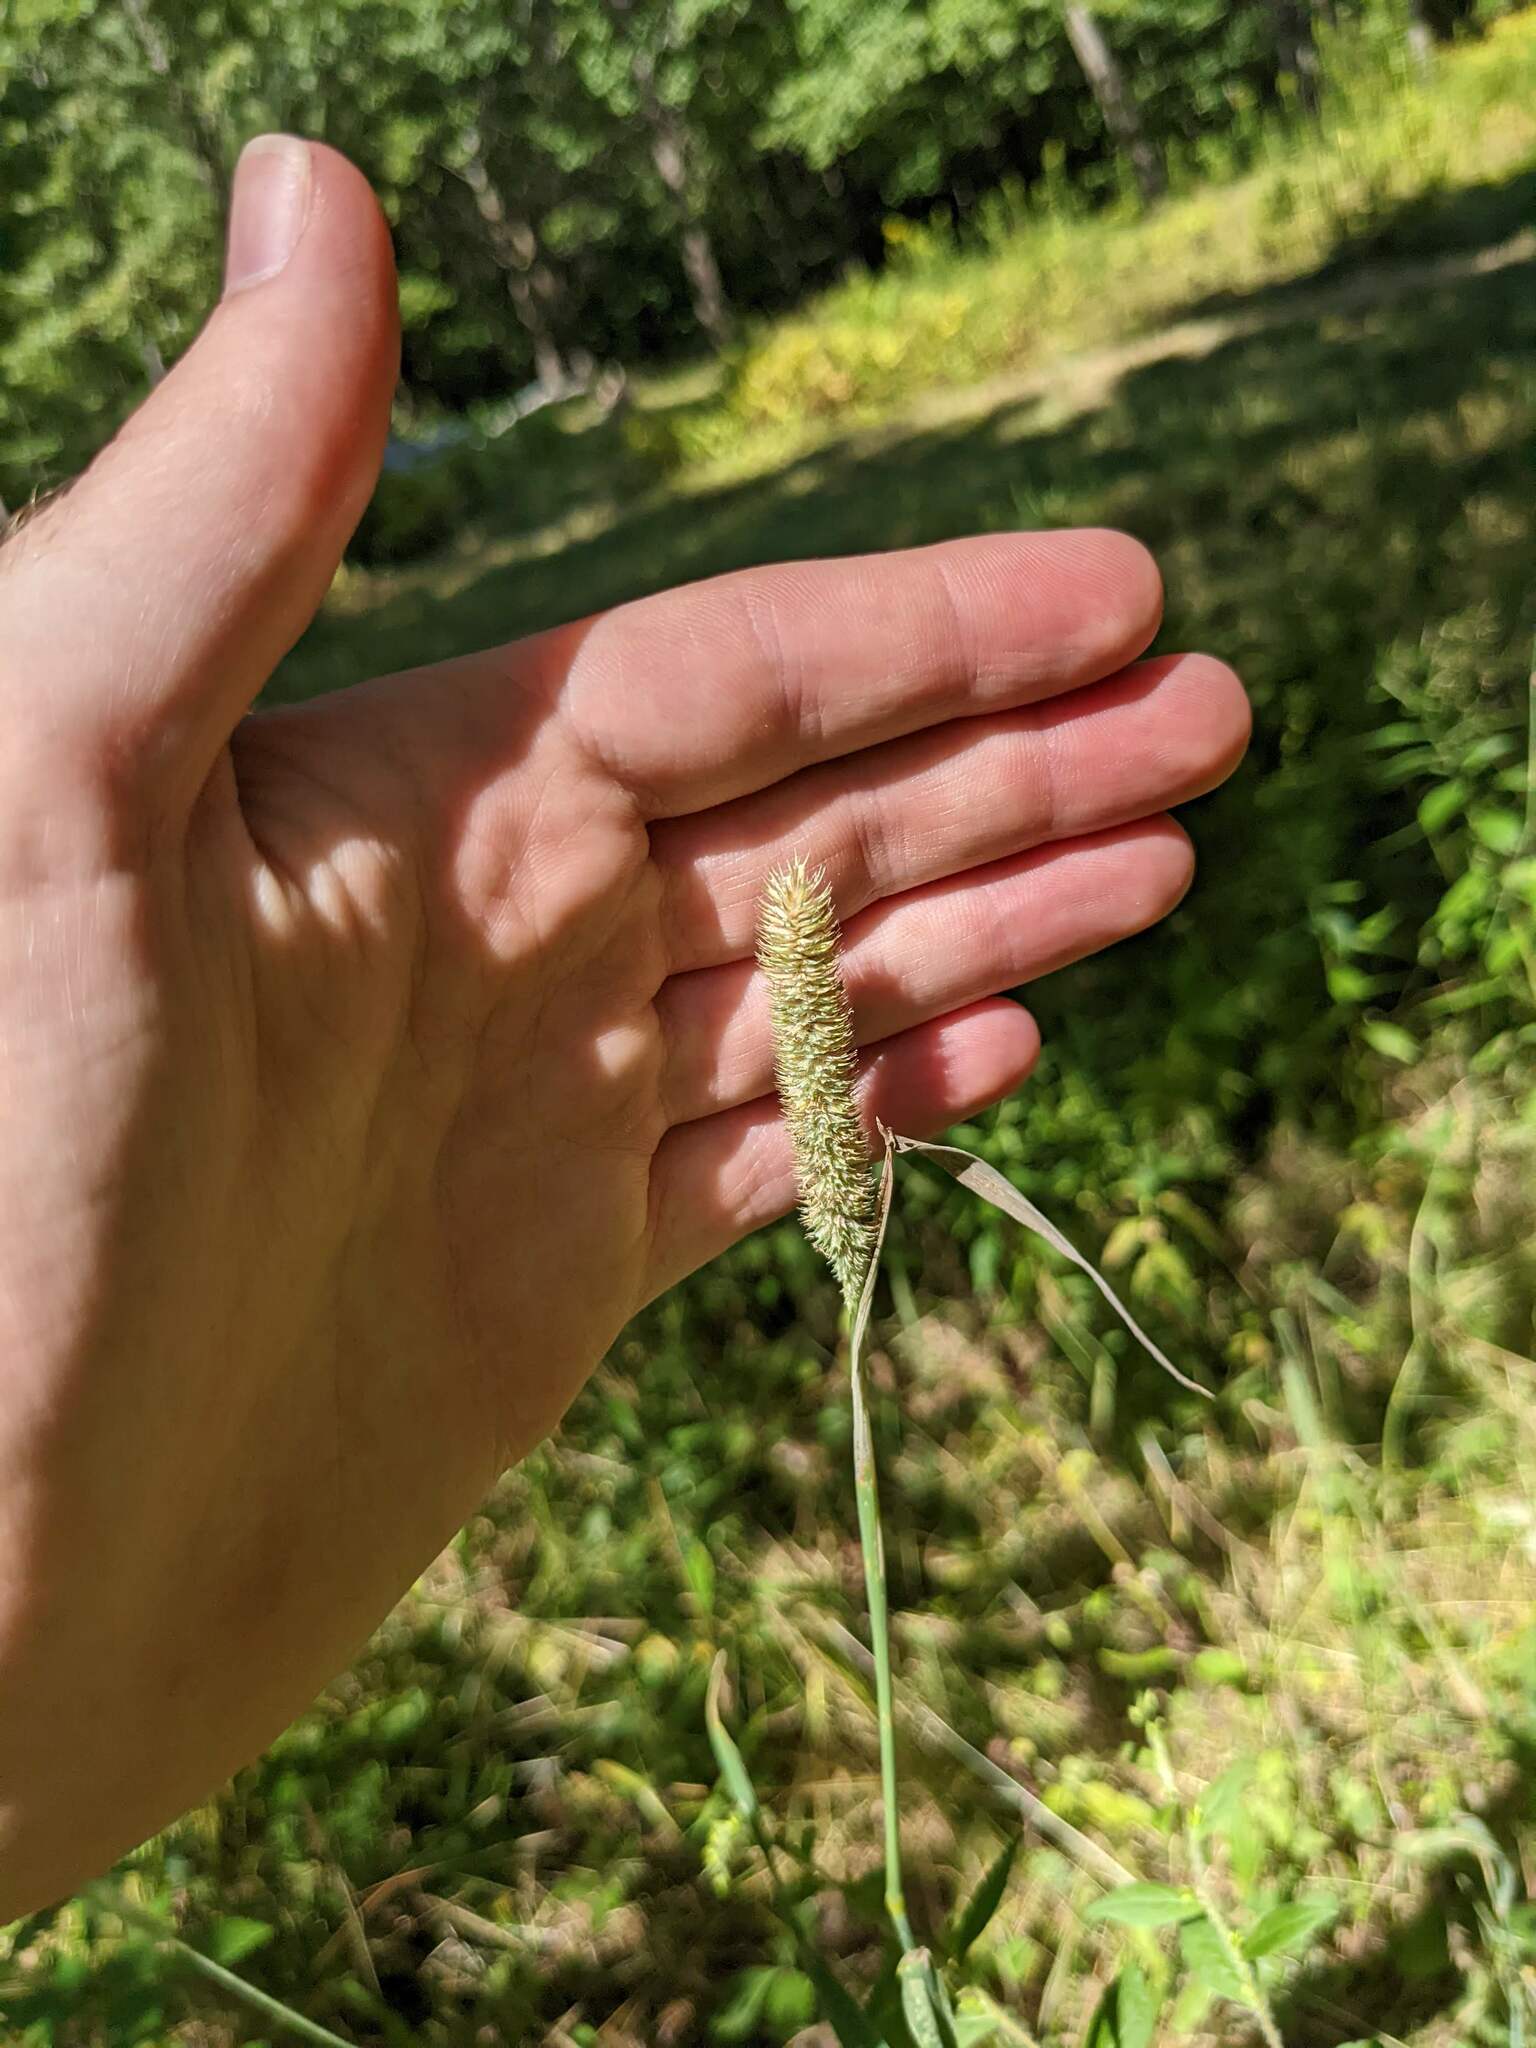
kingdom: Plantae
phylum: Tracheophyta
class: Liliopsida
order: Poales
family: Poaceae
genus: Phleum
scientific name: Phleum pratense
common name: Timothy grass
